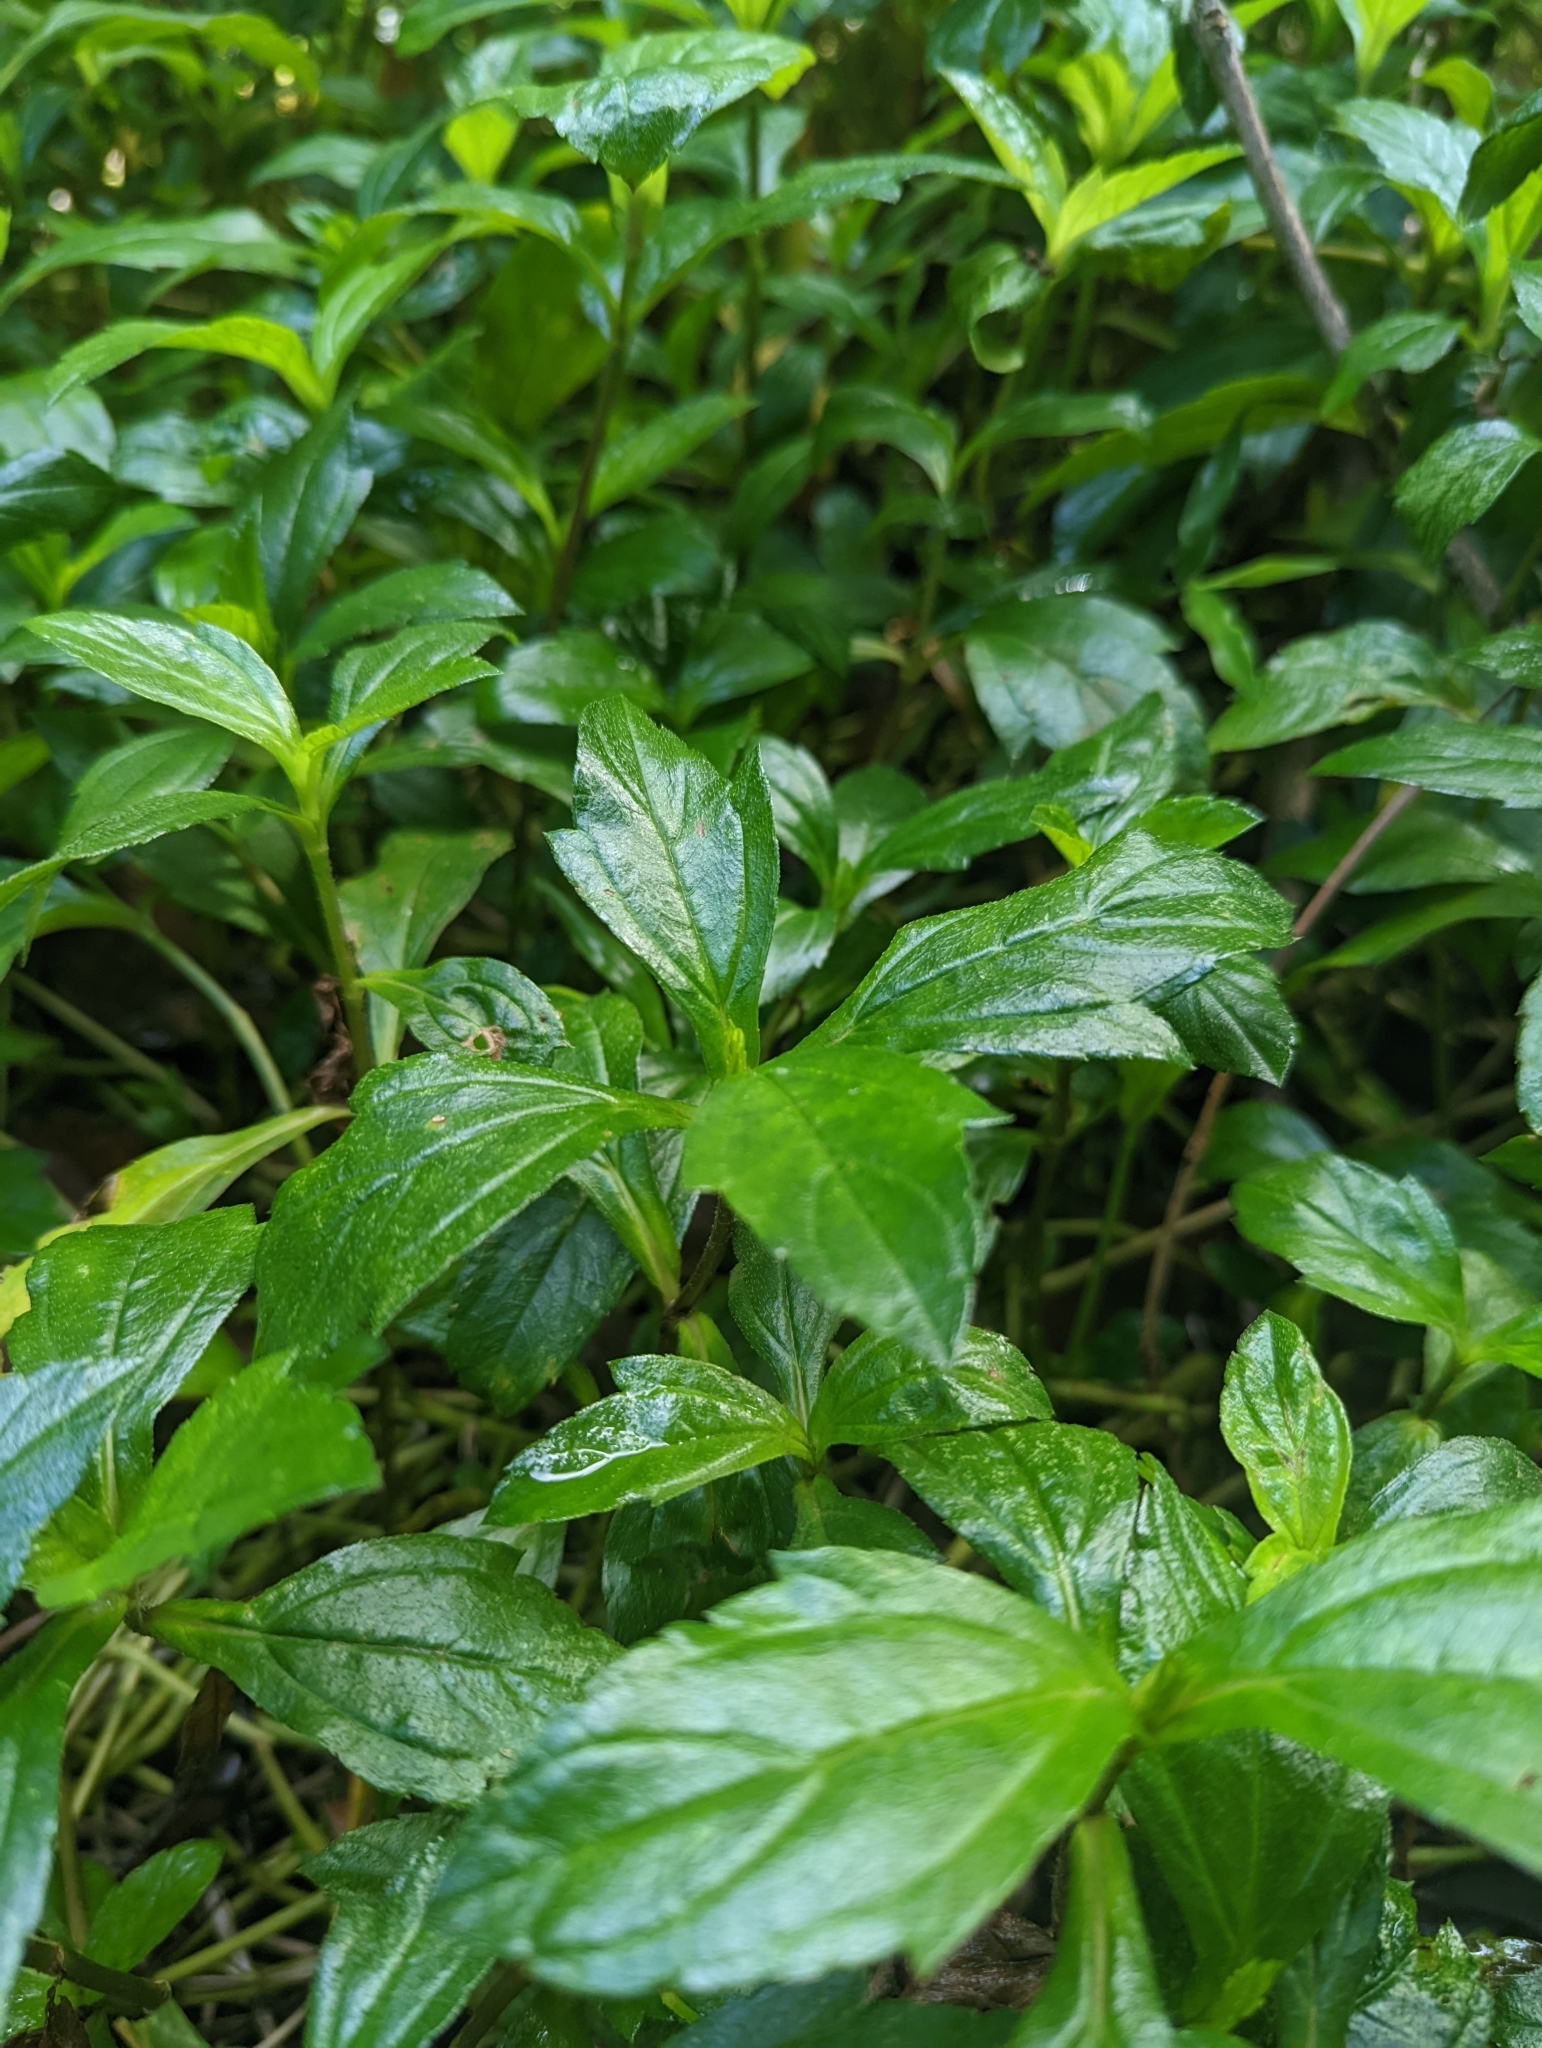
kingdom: Plantae
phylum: Tracheophyta
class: Magnoliopsida
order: Asterales
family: Asteraceae
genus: Sphagneticola
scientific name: Sphagneticola trilobata
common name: Bay biscayne creeping-oxeye
